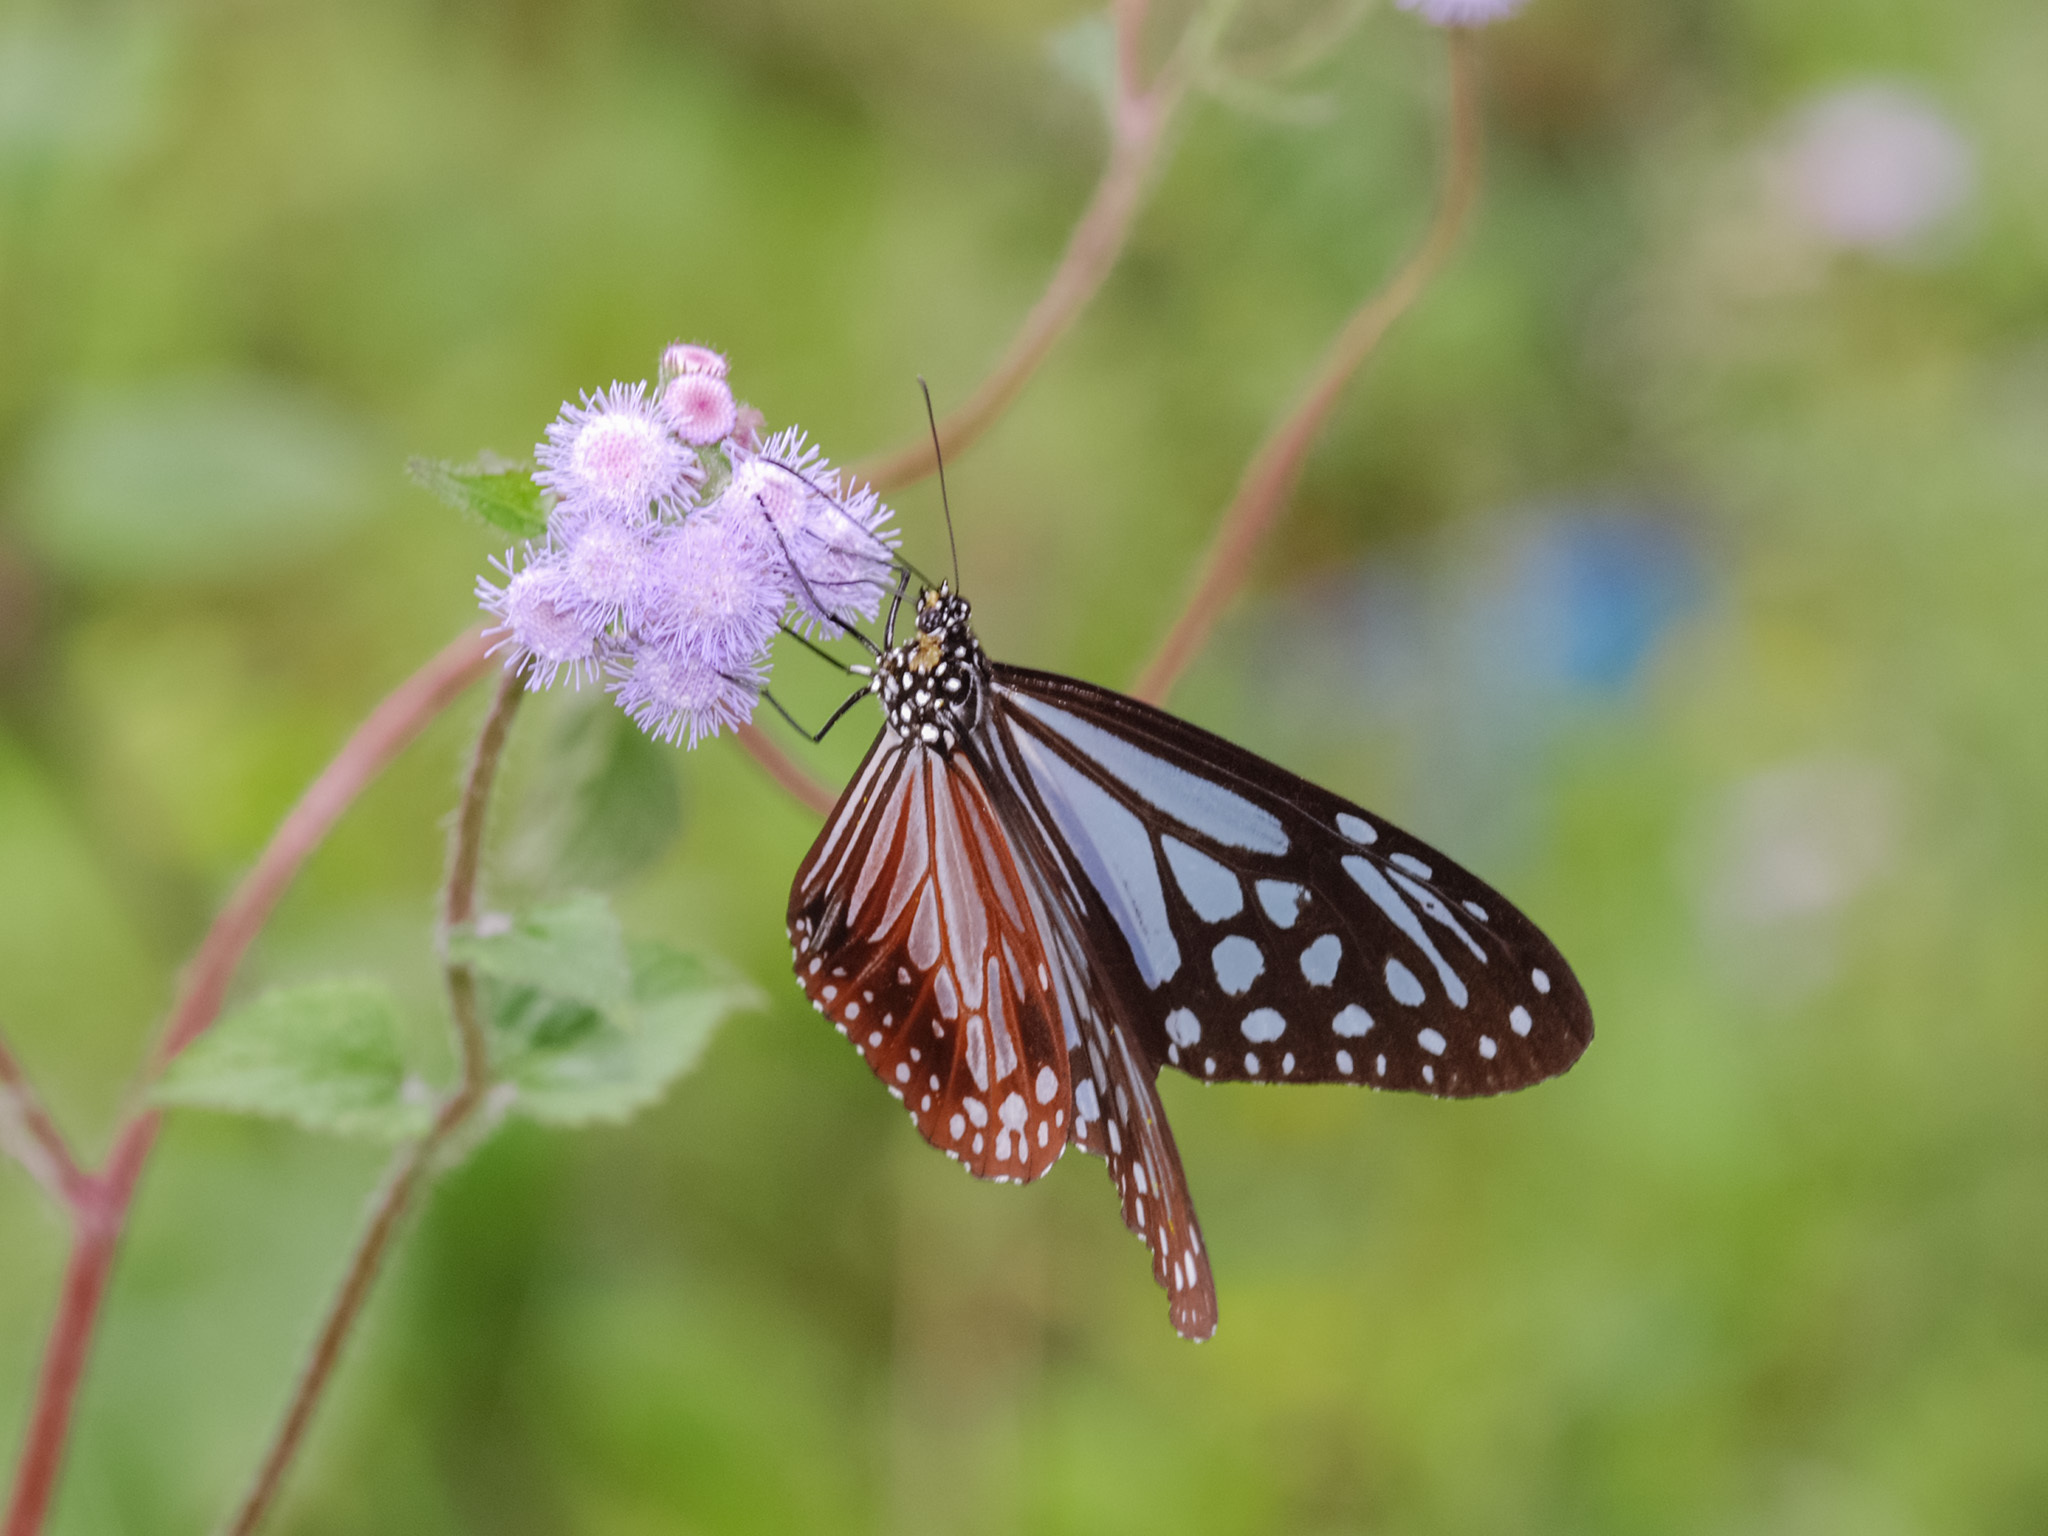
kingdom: Animalia
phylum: Arthropoda
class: Insecta
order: Lepidoptera
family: Nymphalidae
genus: Parantica
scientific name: Parantica melaneus
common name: Chocolate tiger
